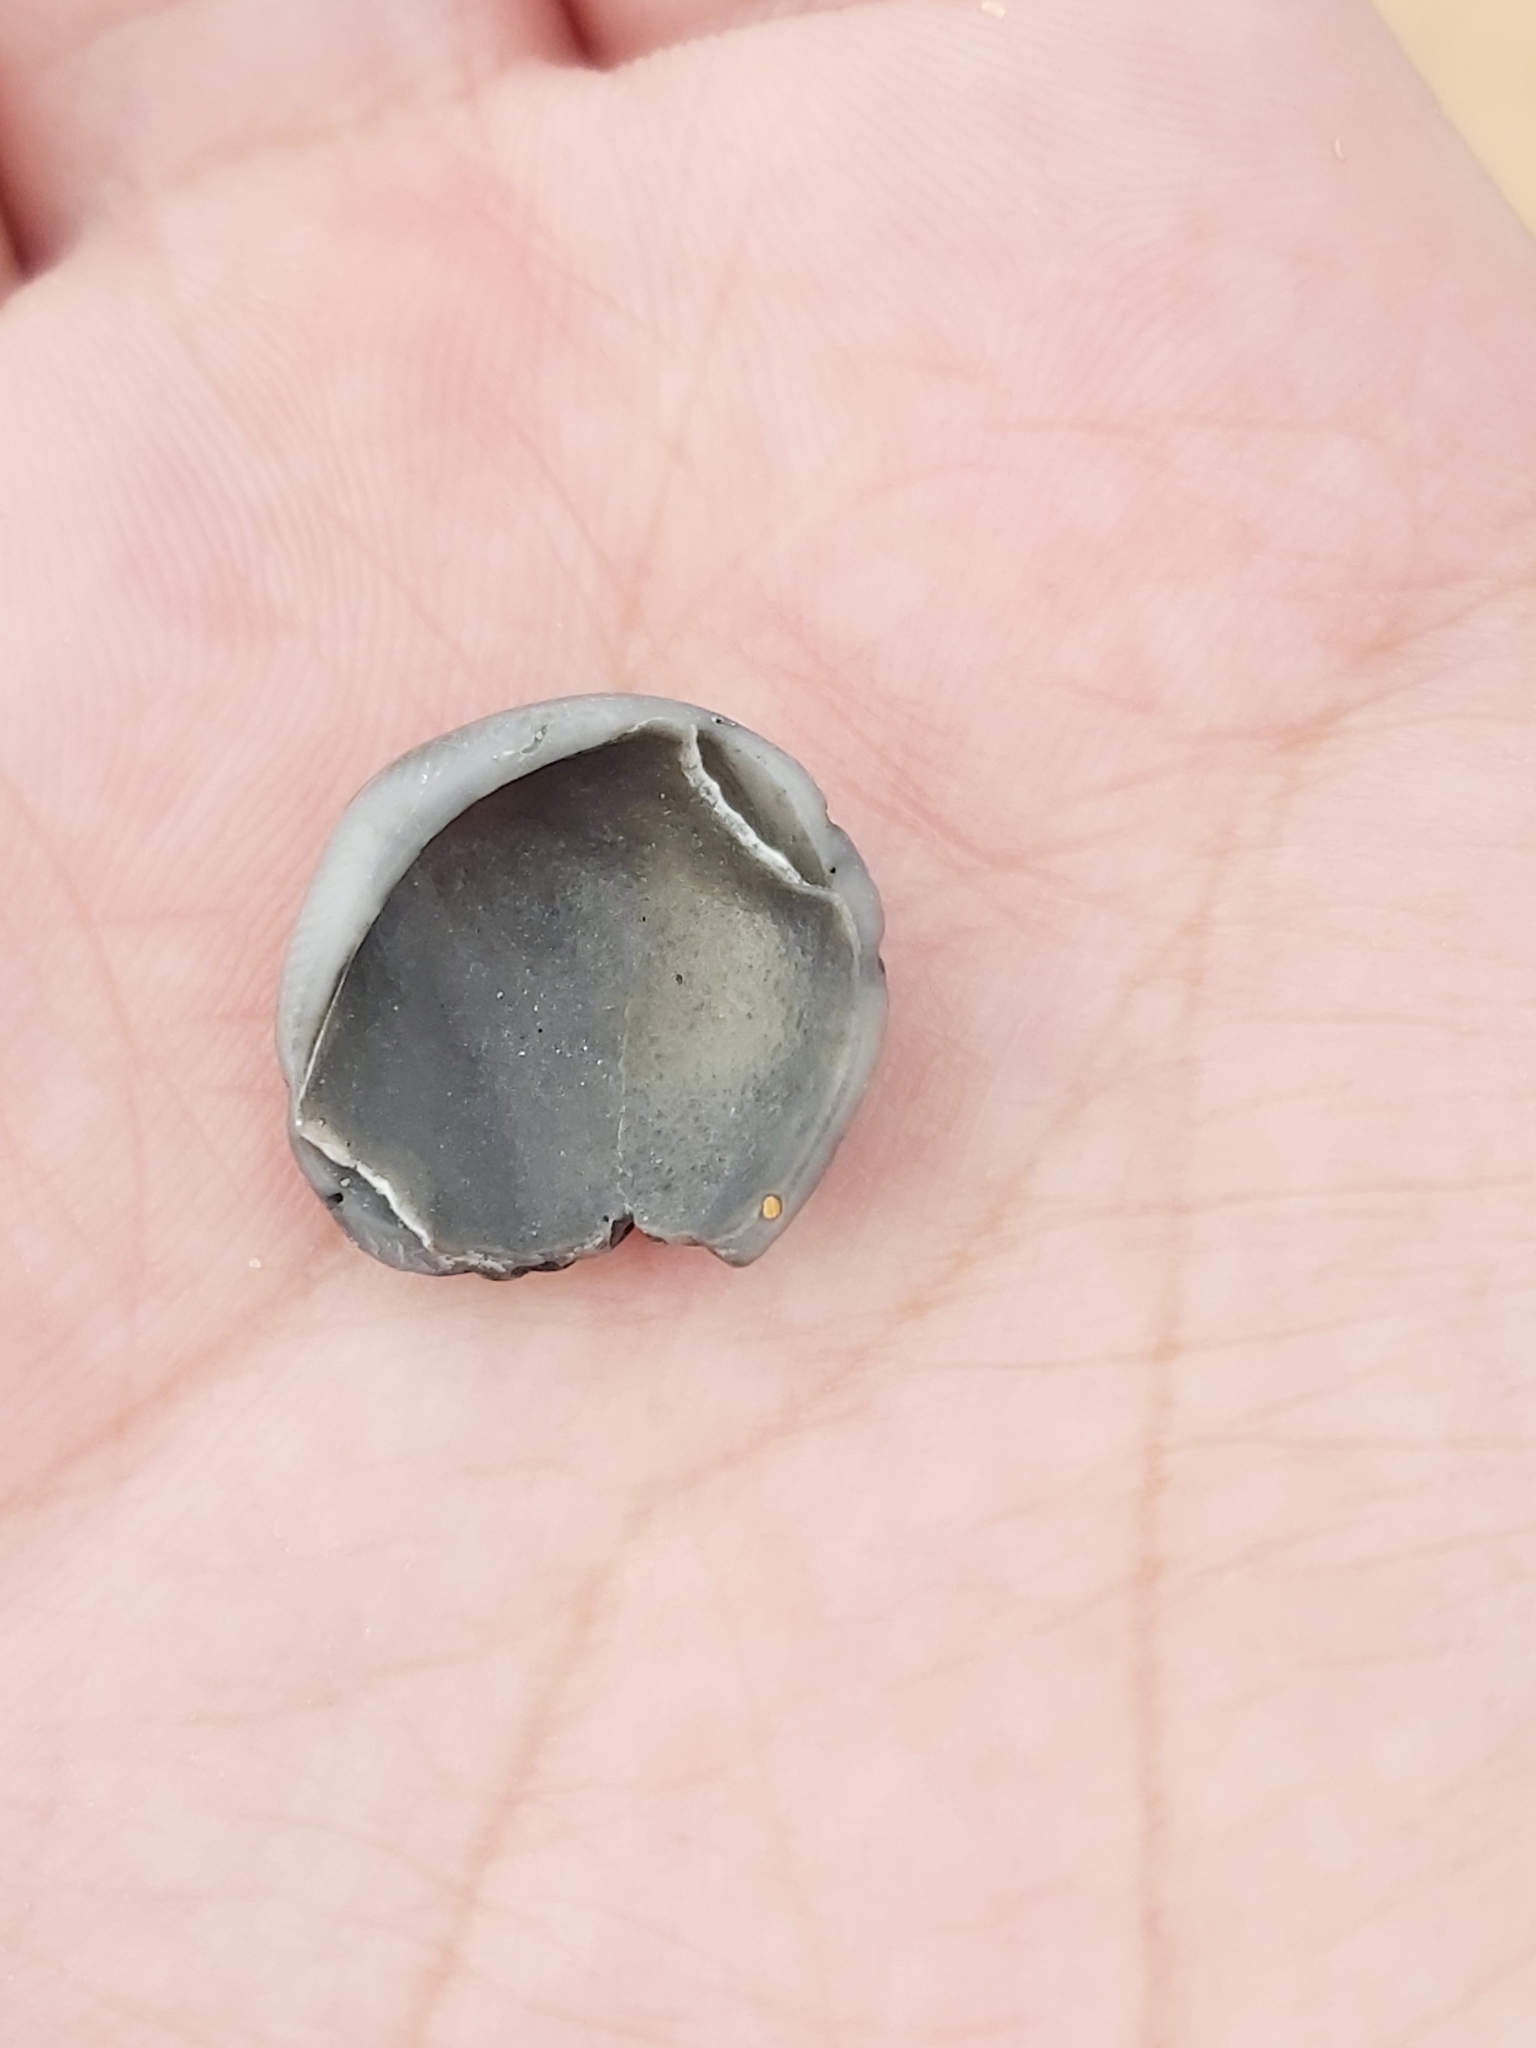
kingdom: Animalia
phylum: Mollusca
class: Bivalvia
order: Arcida
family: Glycymerididae
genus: Glycymeris
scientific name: Glycymeris grayana
